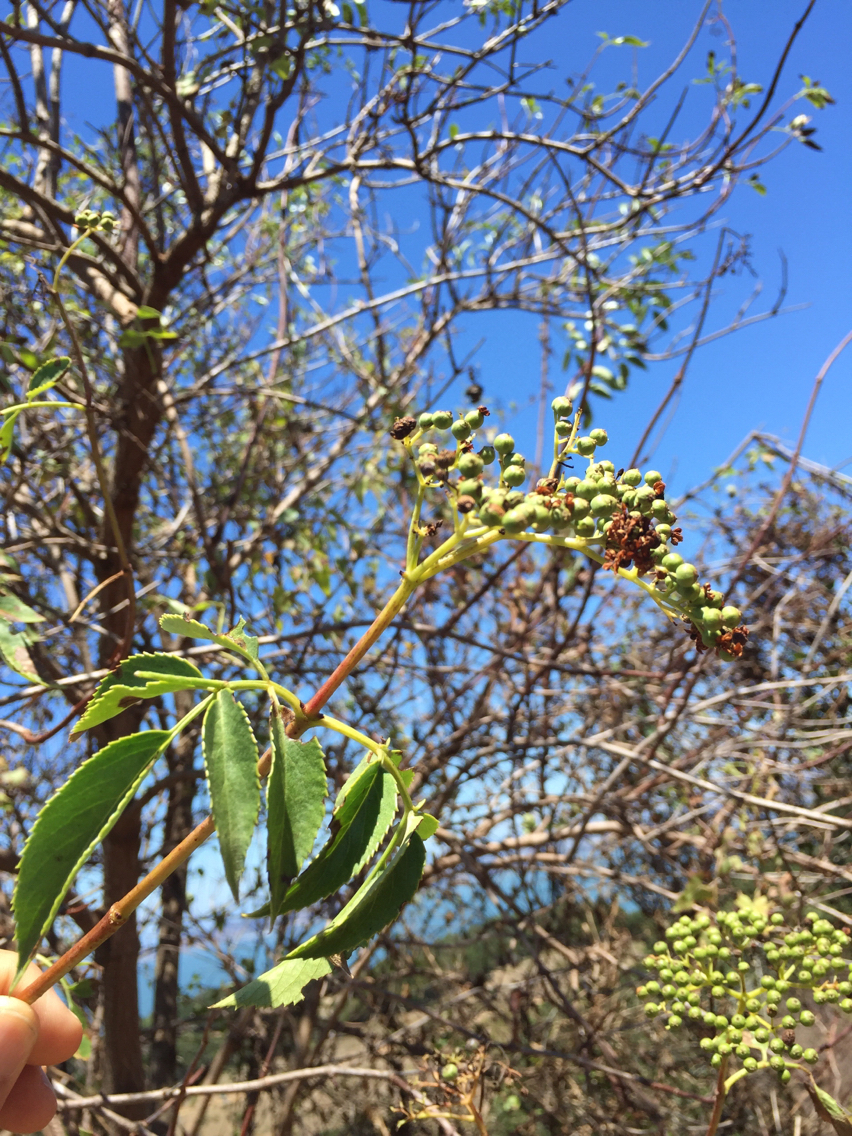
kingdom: Plantae
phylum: Tracheophyta
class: Magnoliopsida
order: Dipsacales
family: Viburnaceae
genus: Sambucus
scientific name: Sambucus cerulea
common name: Blue elder
